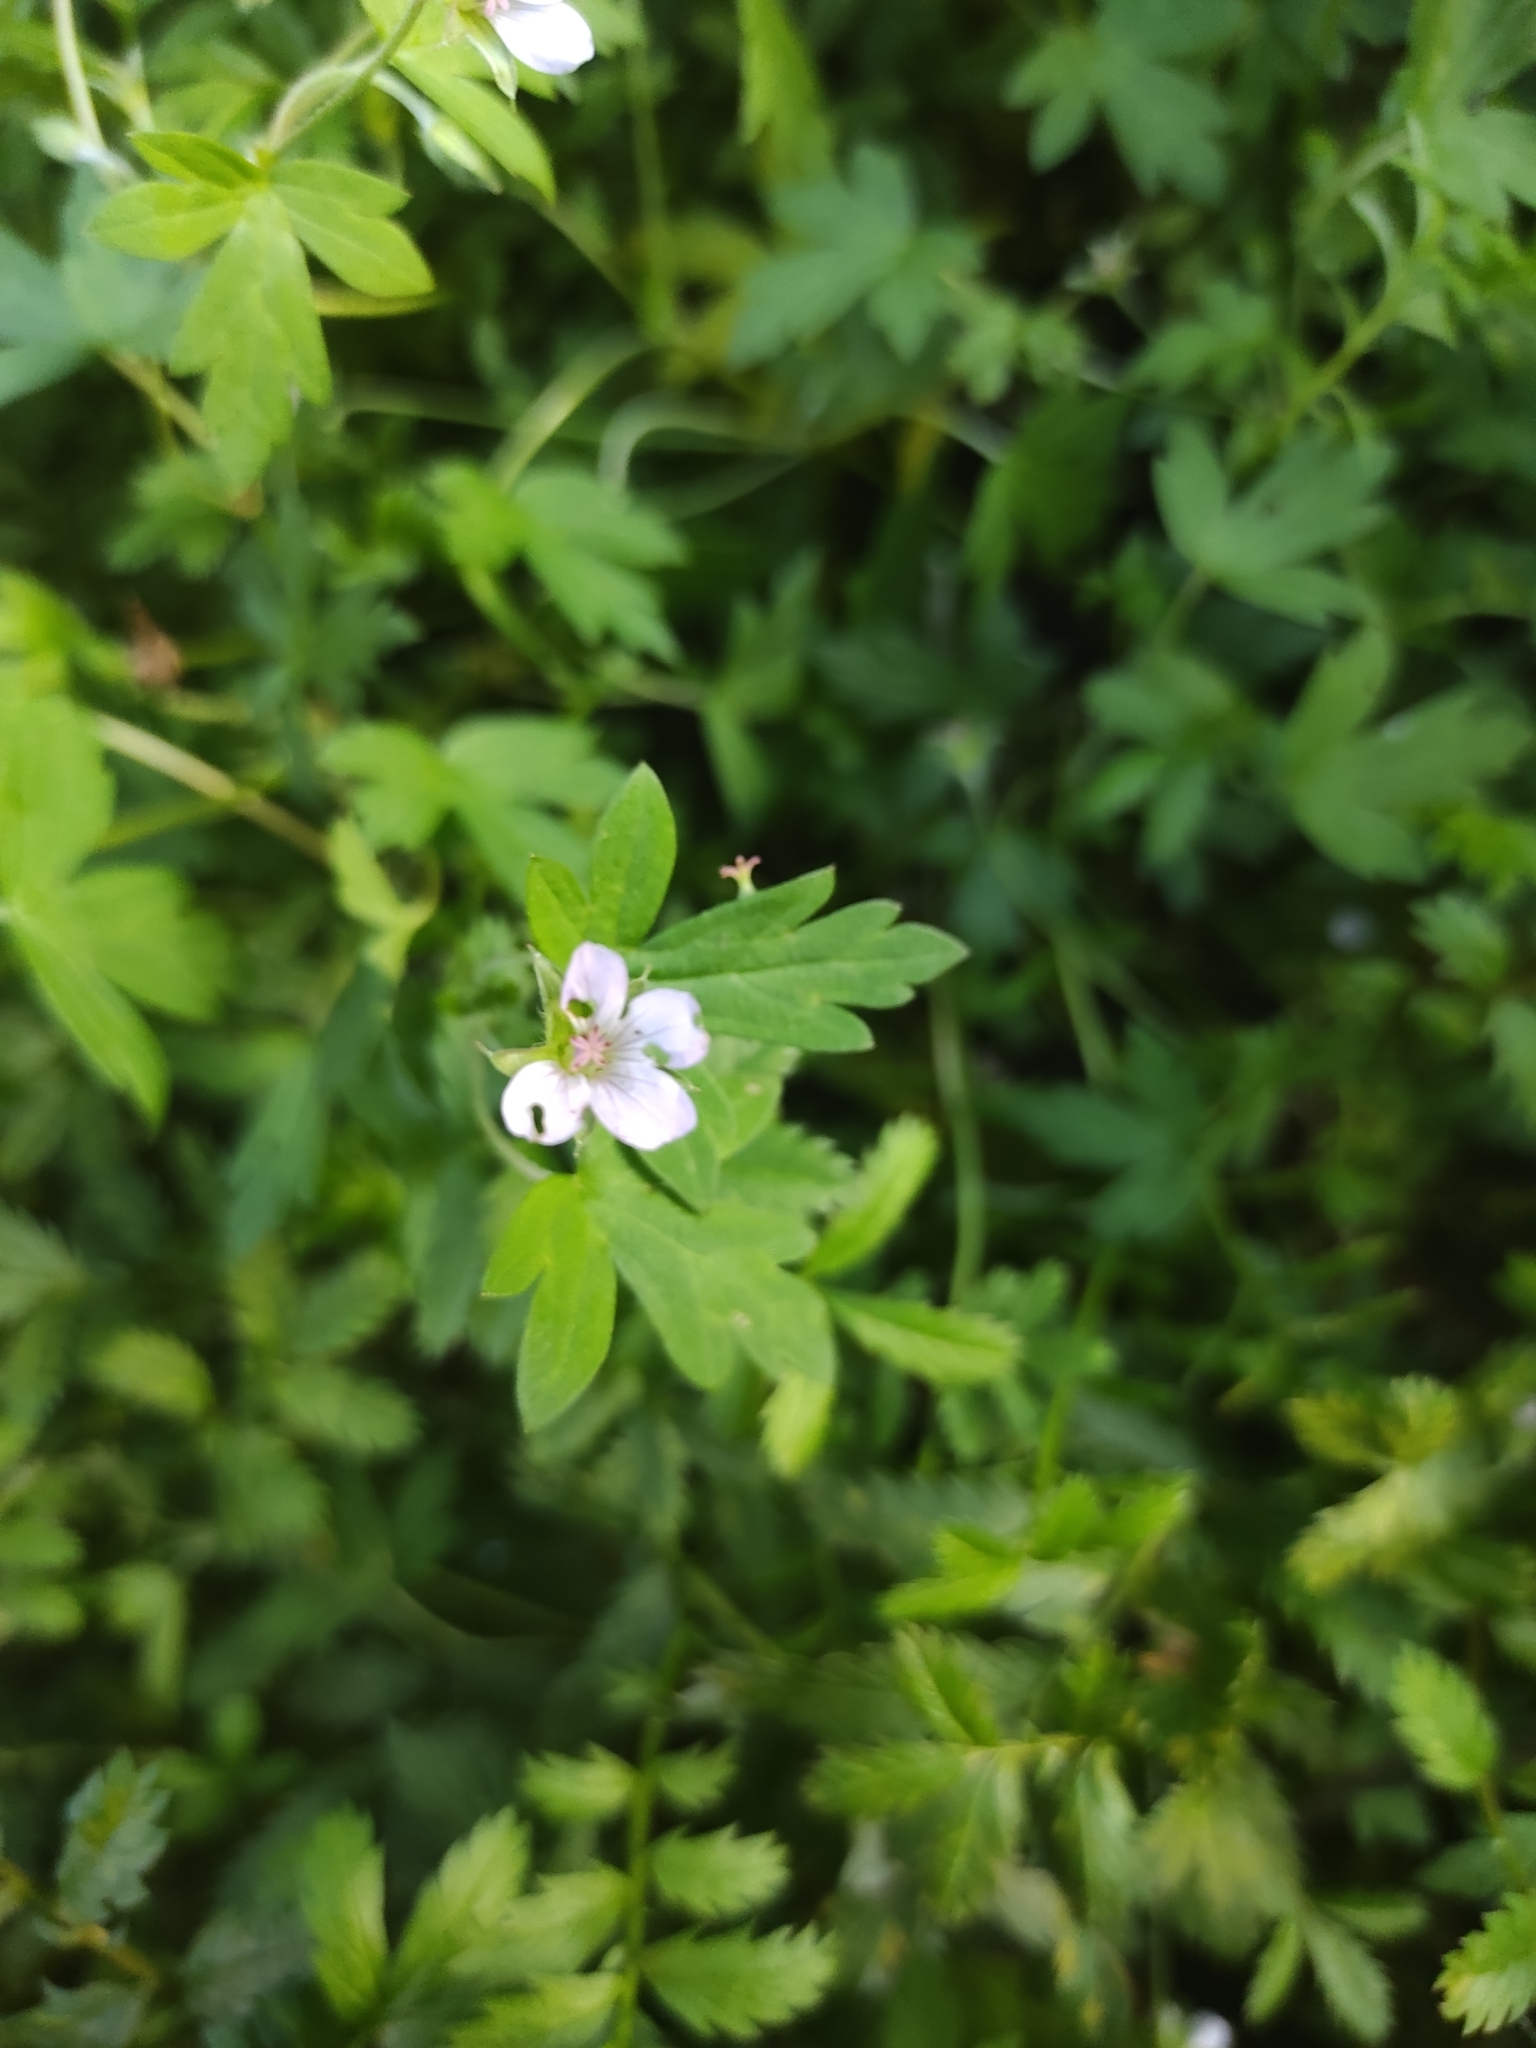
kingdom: Plantae
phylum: Tracheophyta
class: Magnoliopsida
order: Geraniales
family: Geraniaceae
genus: Geranium
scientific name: Geranium sibiricum
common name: Siberian crane's-bill
